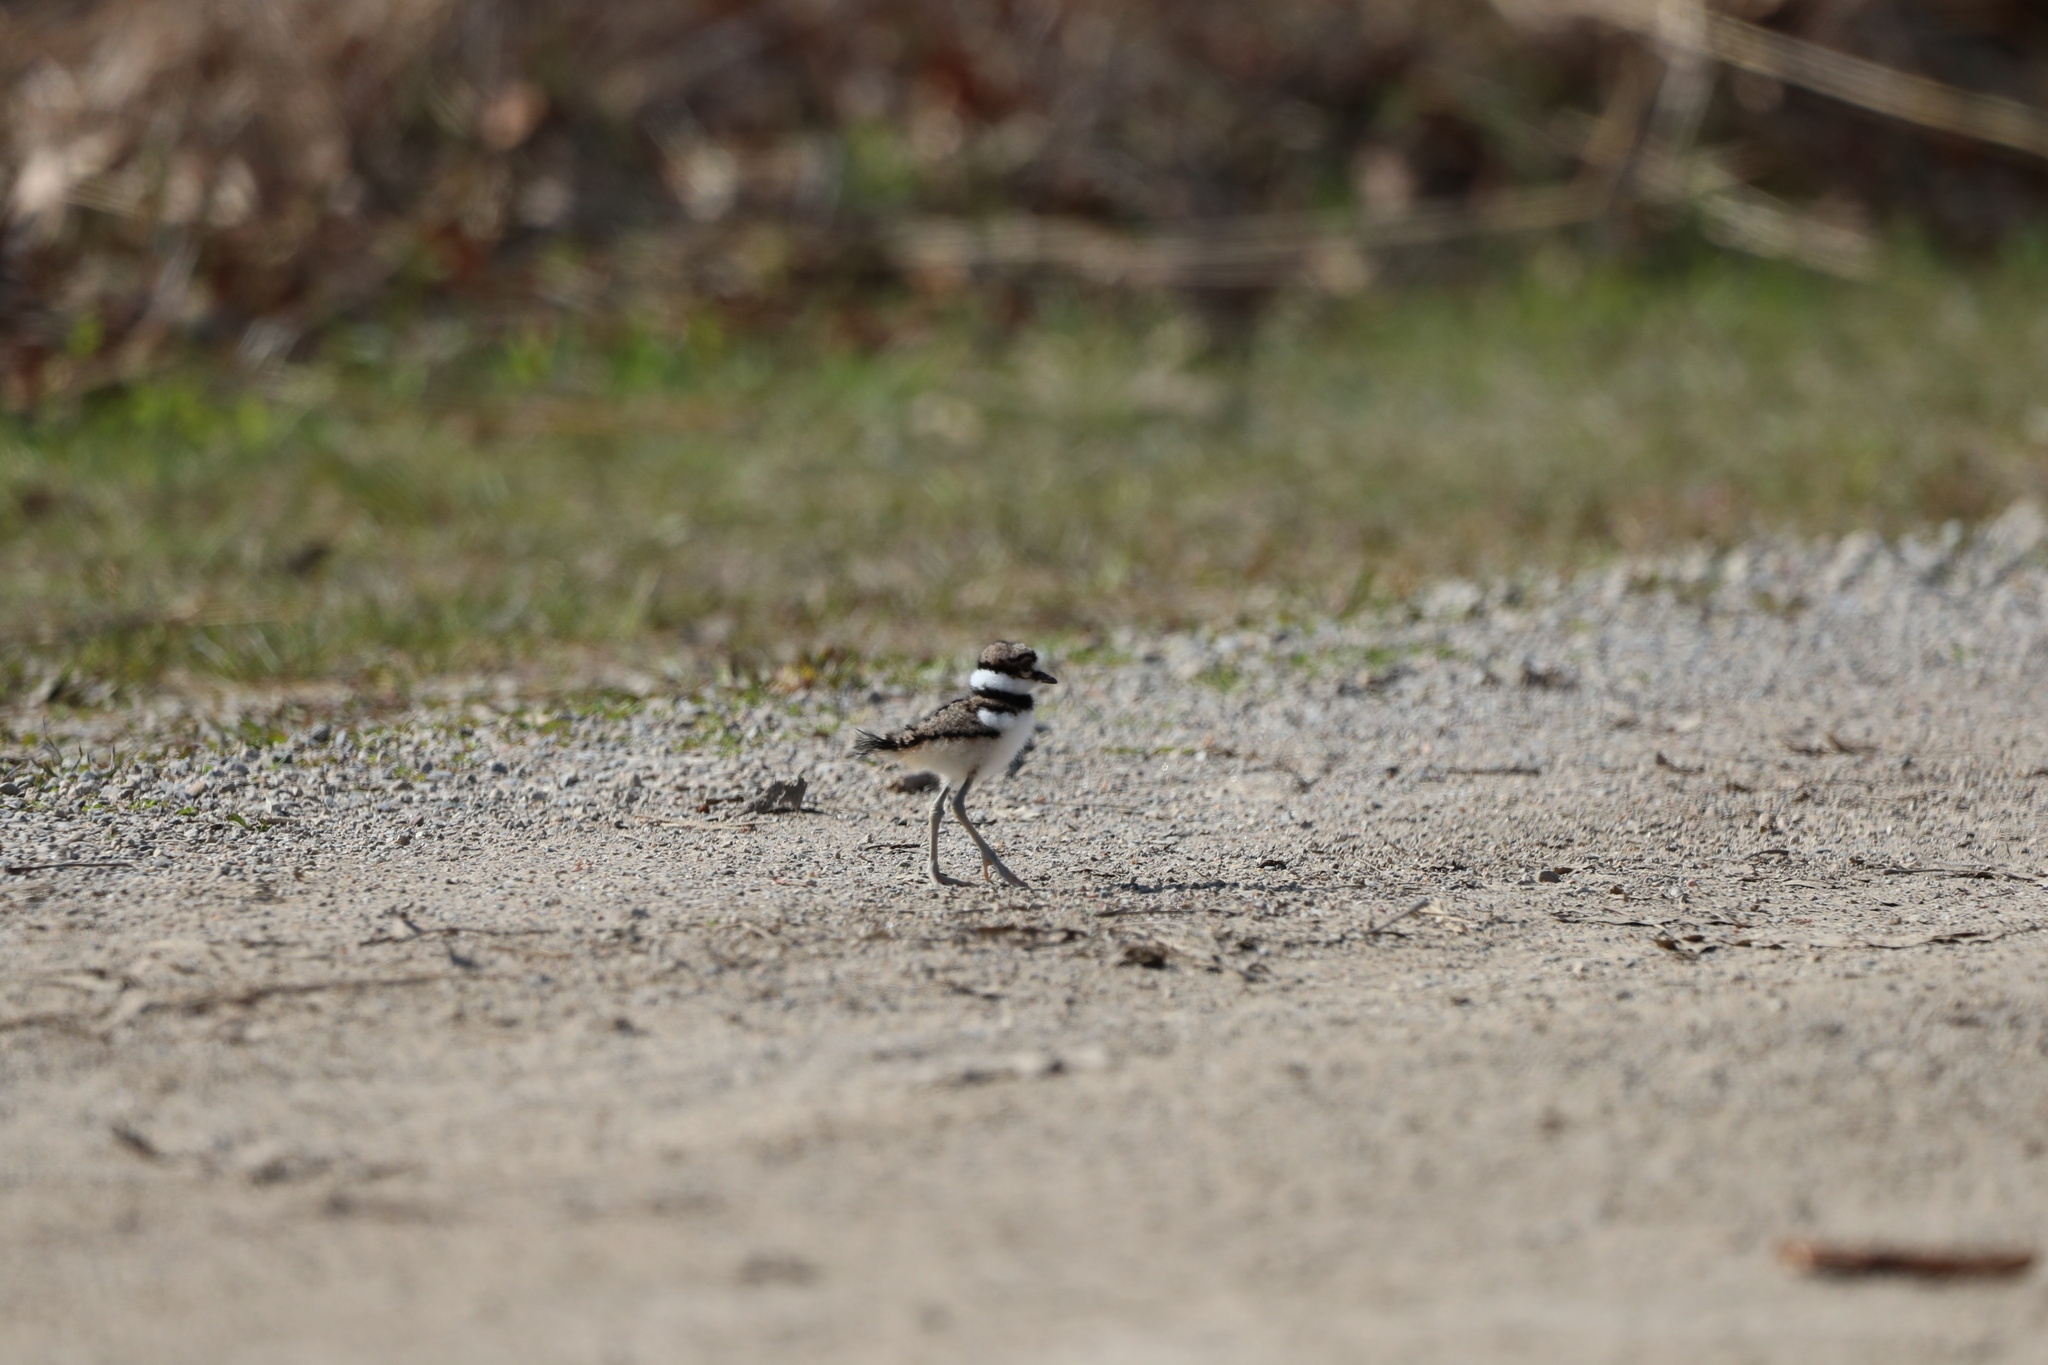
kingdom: Animalia
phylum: Chordata
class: Aves
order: Charadriiformes
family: Charadriidae
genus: Charadrius
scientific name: Charadrius vociferus
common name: Killdeer
